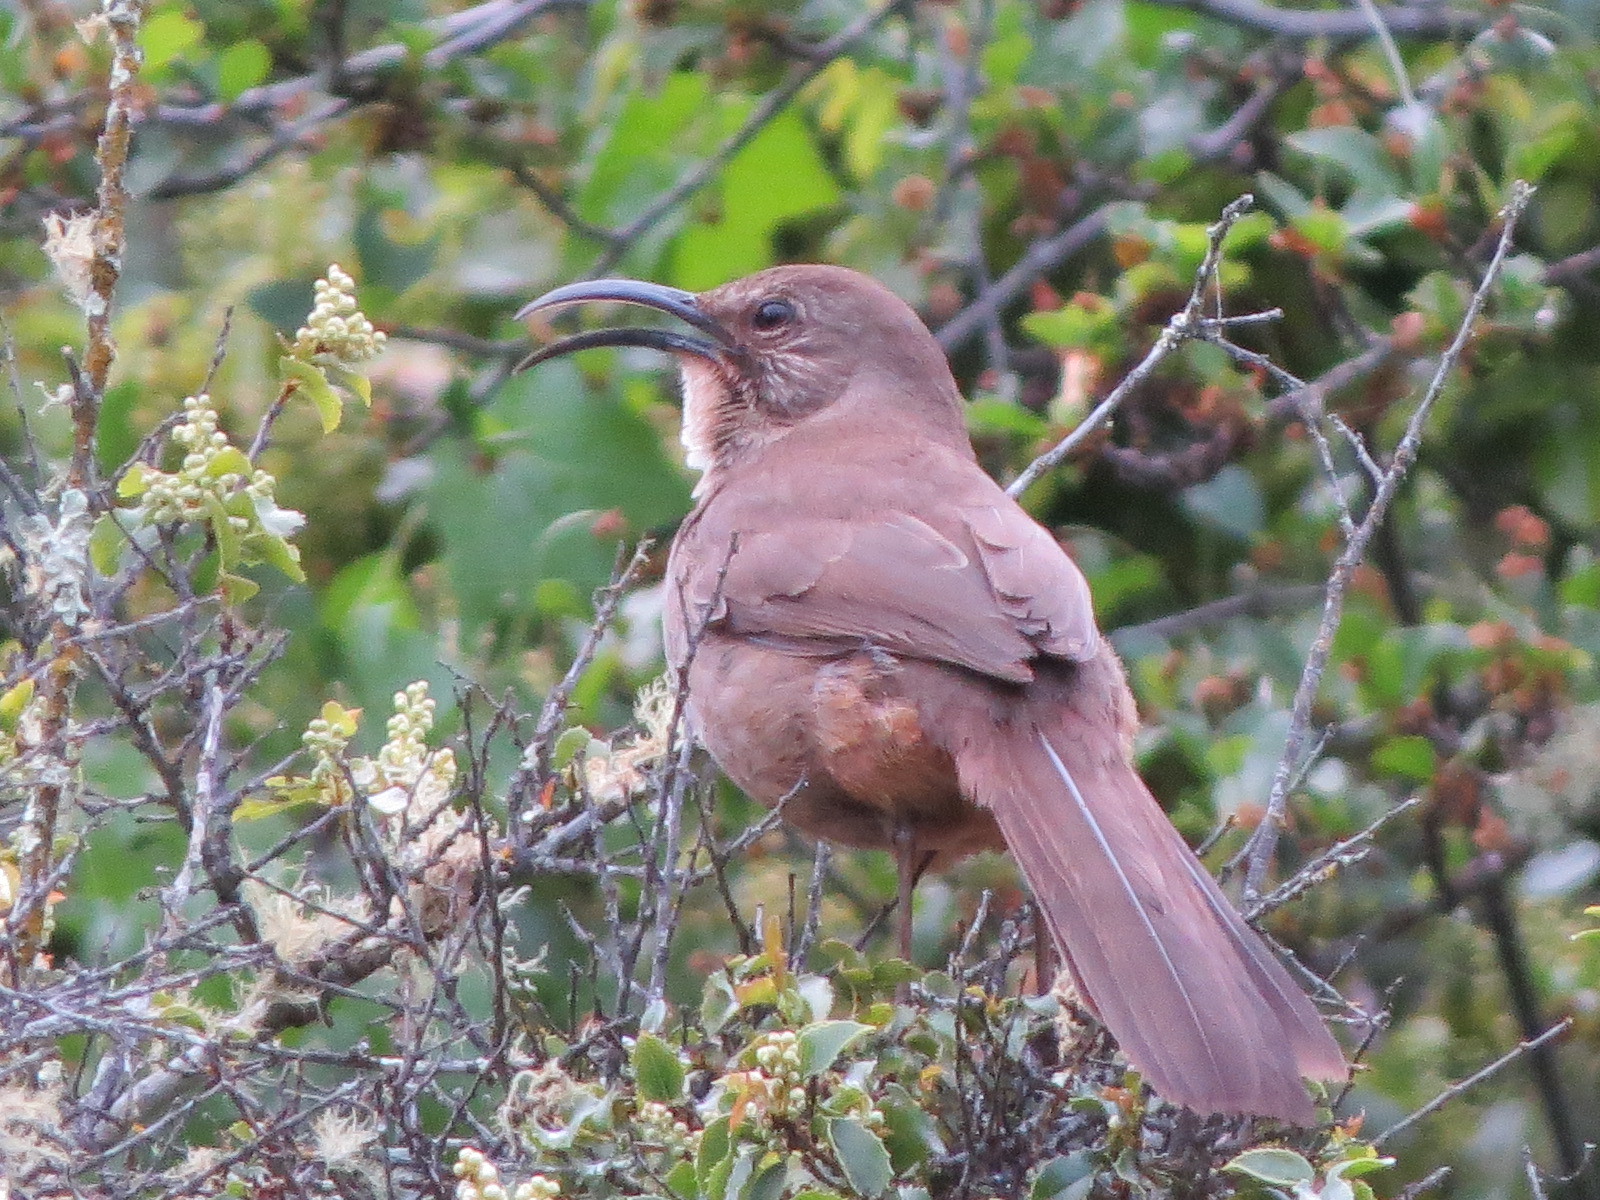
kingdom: Animalia
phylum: Chordata
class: Aves
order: Passeriformes
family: Mimidae
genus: Toxostoma
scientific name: Toxostoma redivivum
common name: California thrasher
